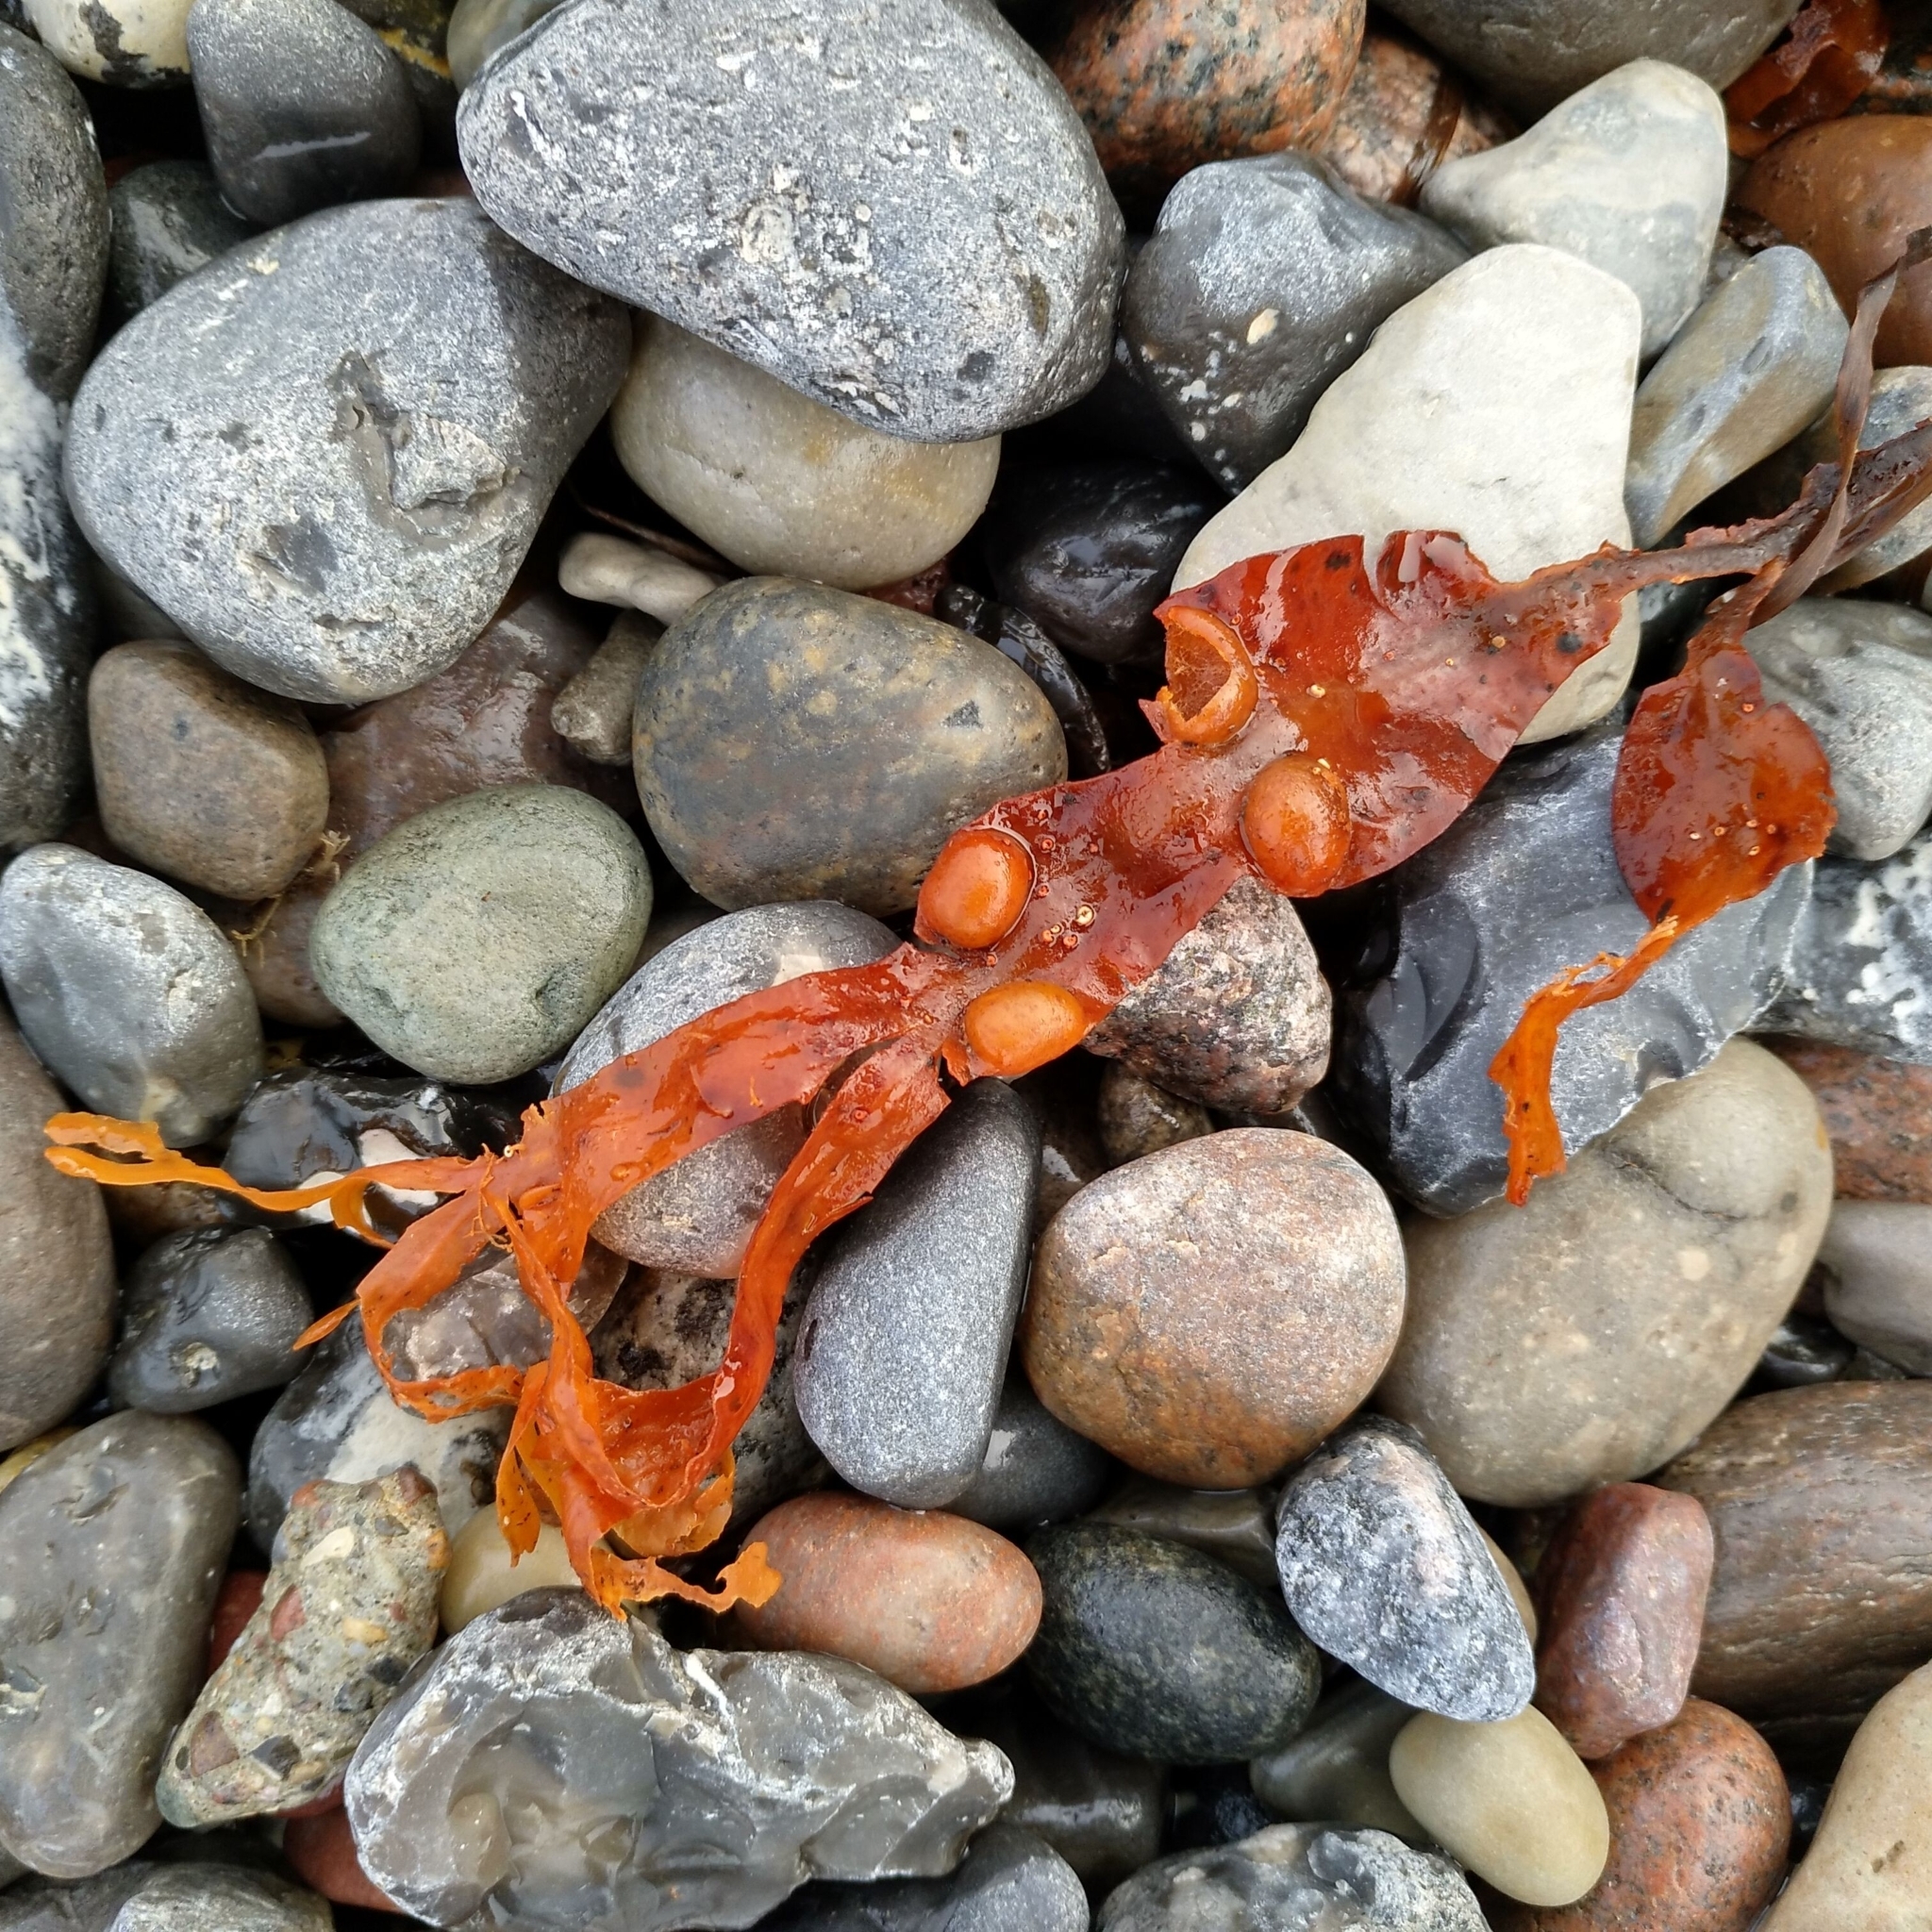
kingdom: Chromista
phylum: Ochrophyta
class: Phaeophyceae
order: Fucales
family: Fucaceae
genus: Fucus
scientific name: Fucus vesiculosus
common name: Bladder wrack
